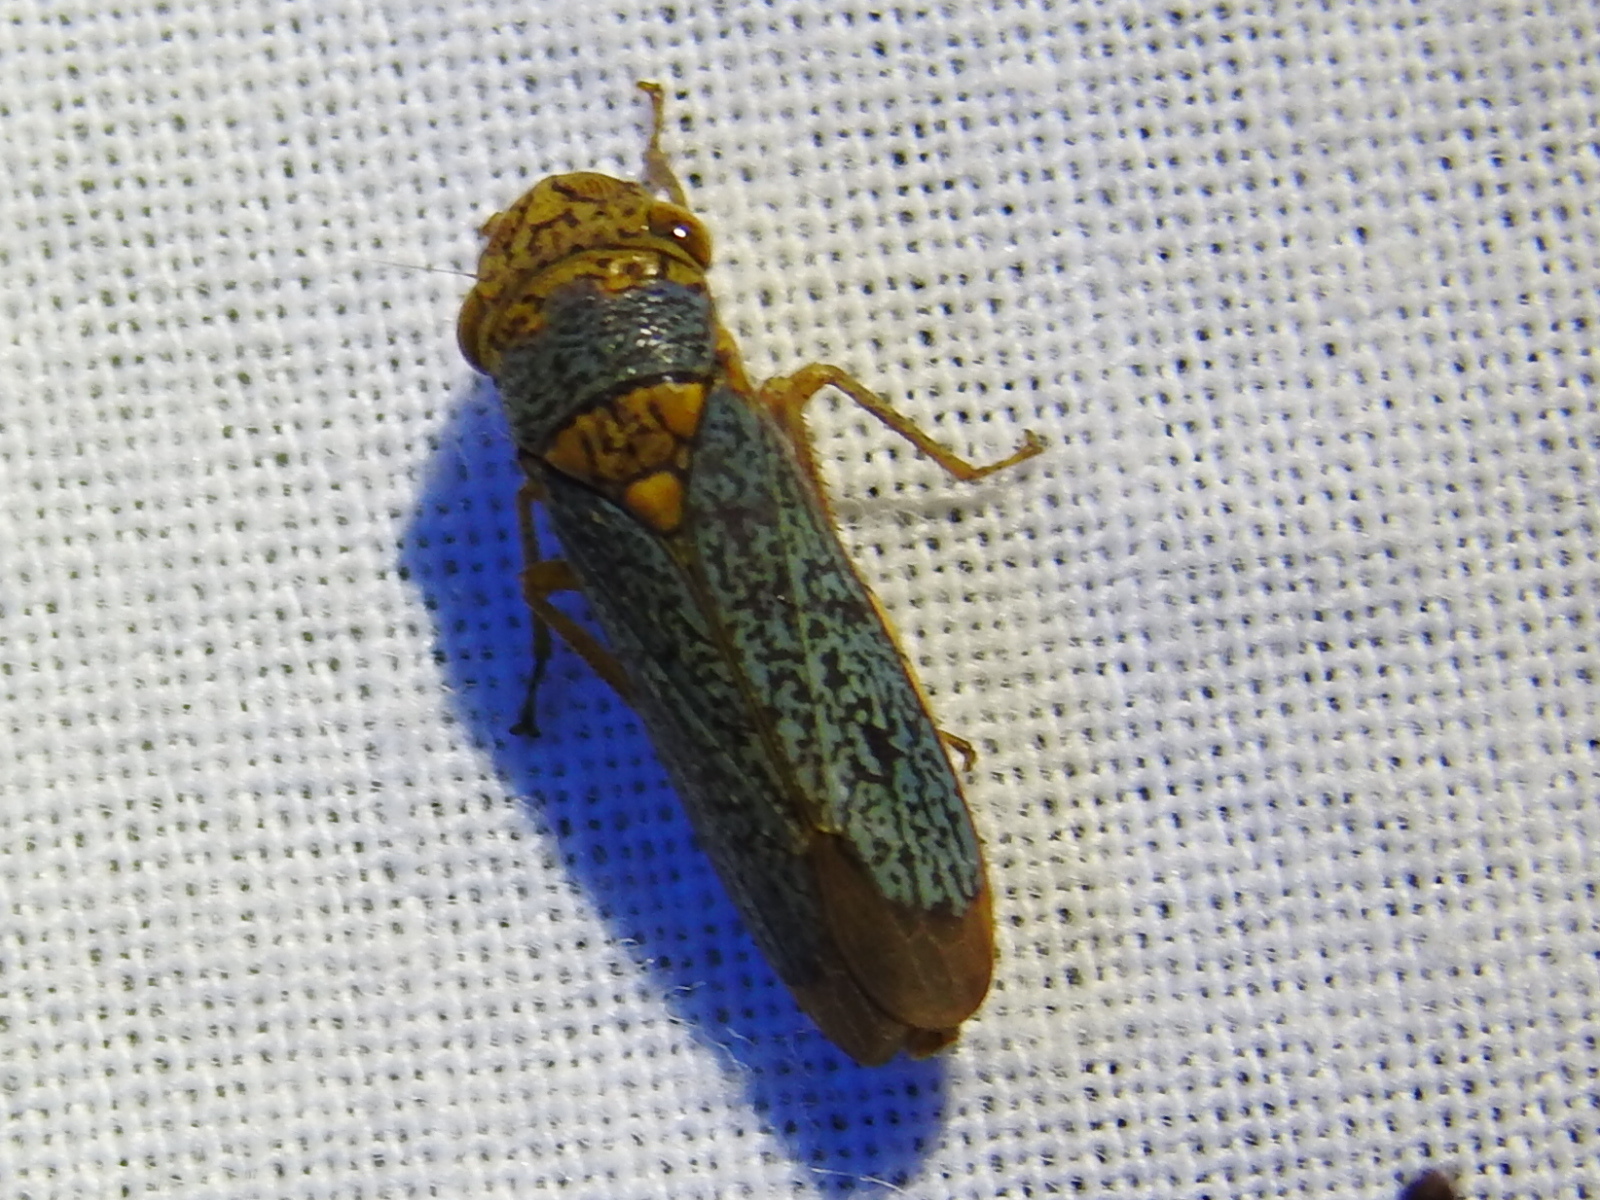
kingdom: Animalia
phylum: Arthropoda
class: Insecta
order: Hemiptera
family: Cicadellidae
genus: Oncometopia
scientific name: Oncometopia orbona
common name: Broad-headed sharpshooter
